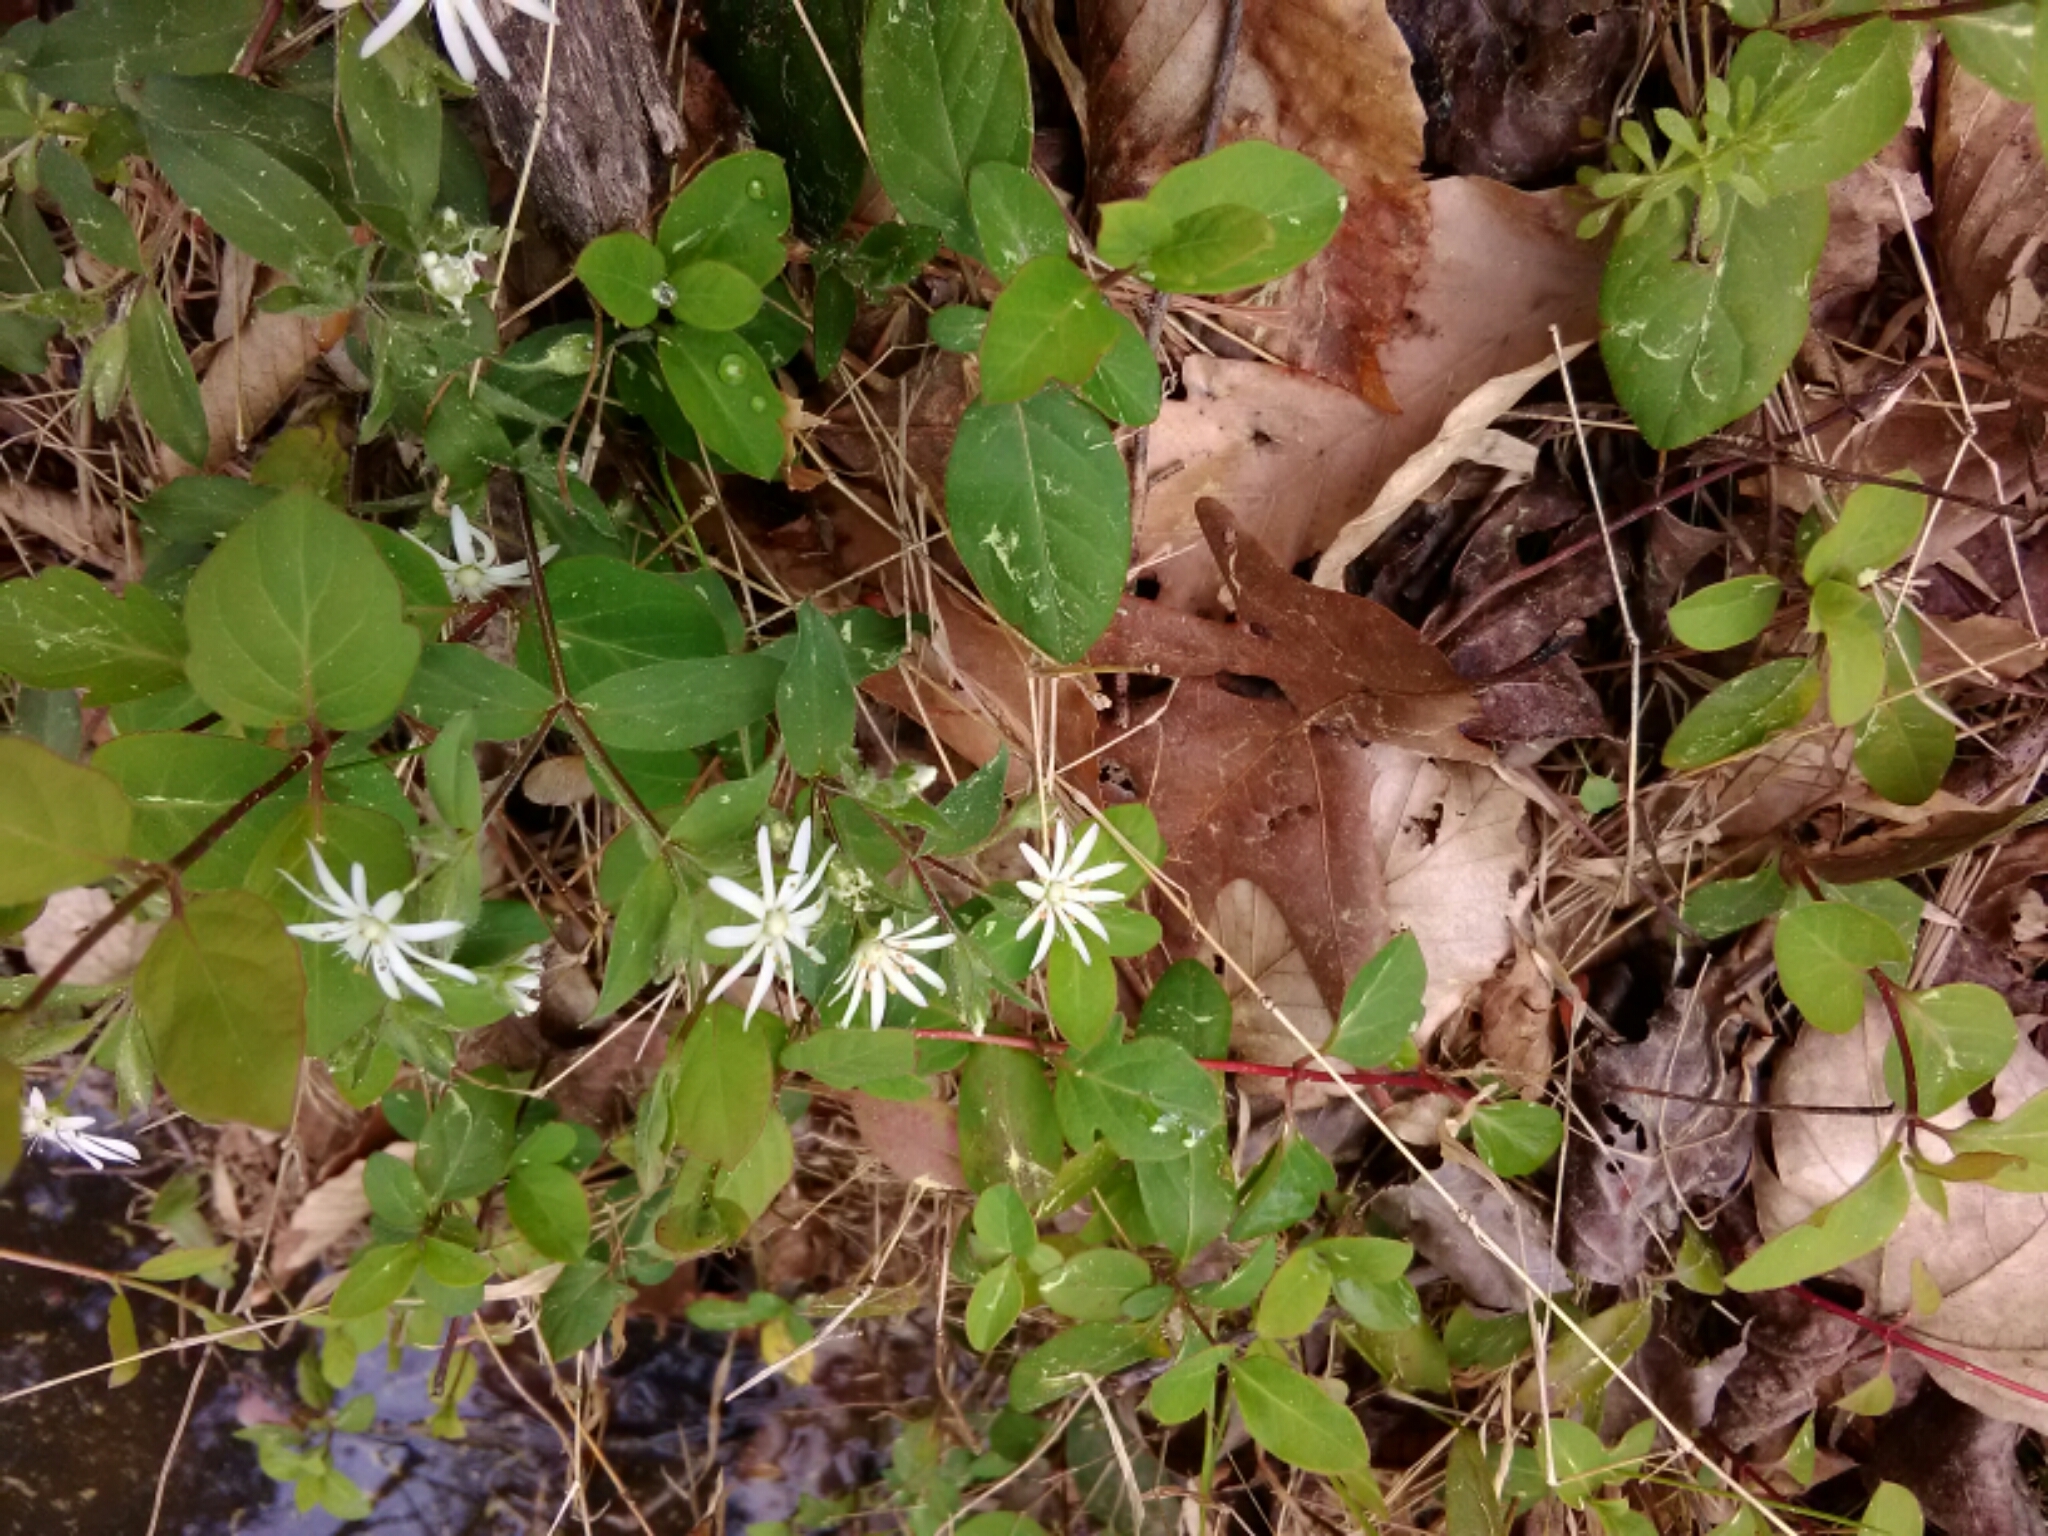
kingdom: Plantae
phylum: Tracheophyta
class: Magnoliopsida
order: Caryophyllales
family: Caryophyllaceae
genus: Stellaria
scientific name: Stellaria pubera
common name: Star chickweed
